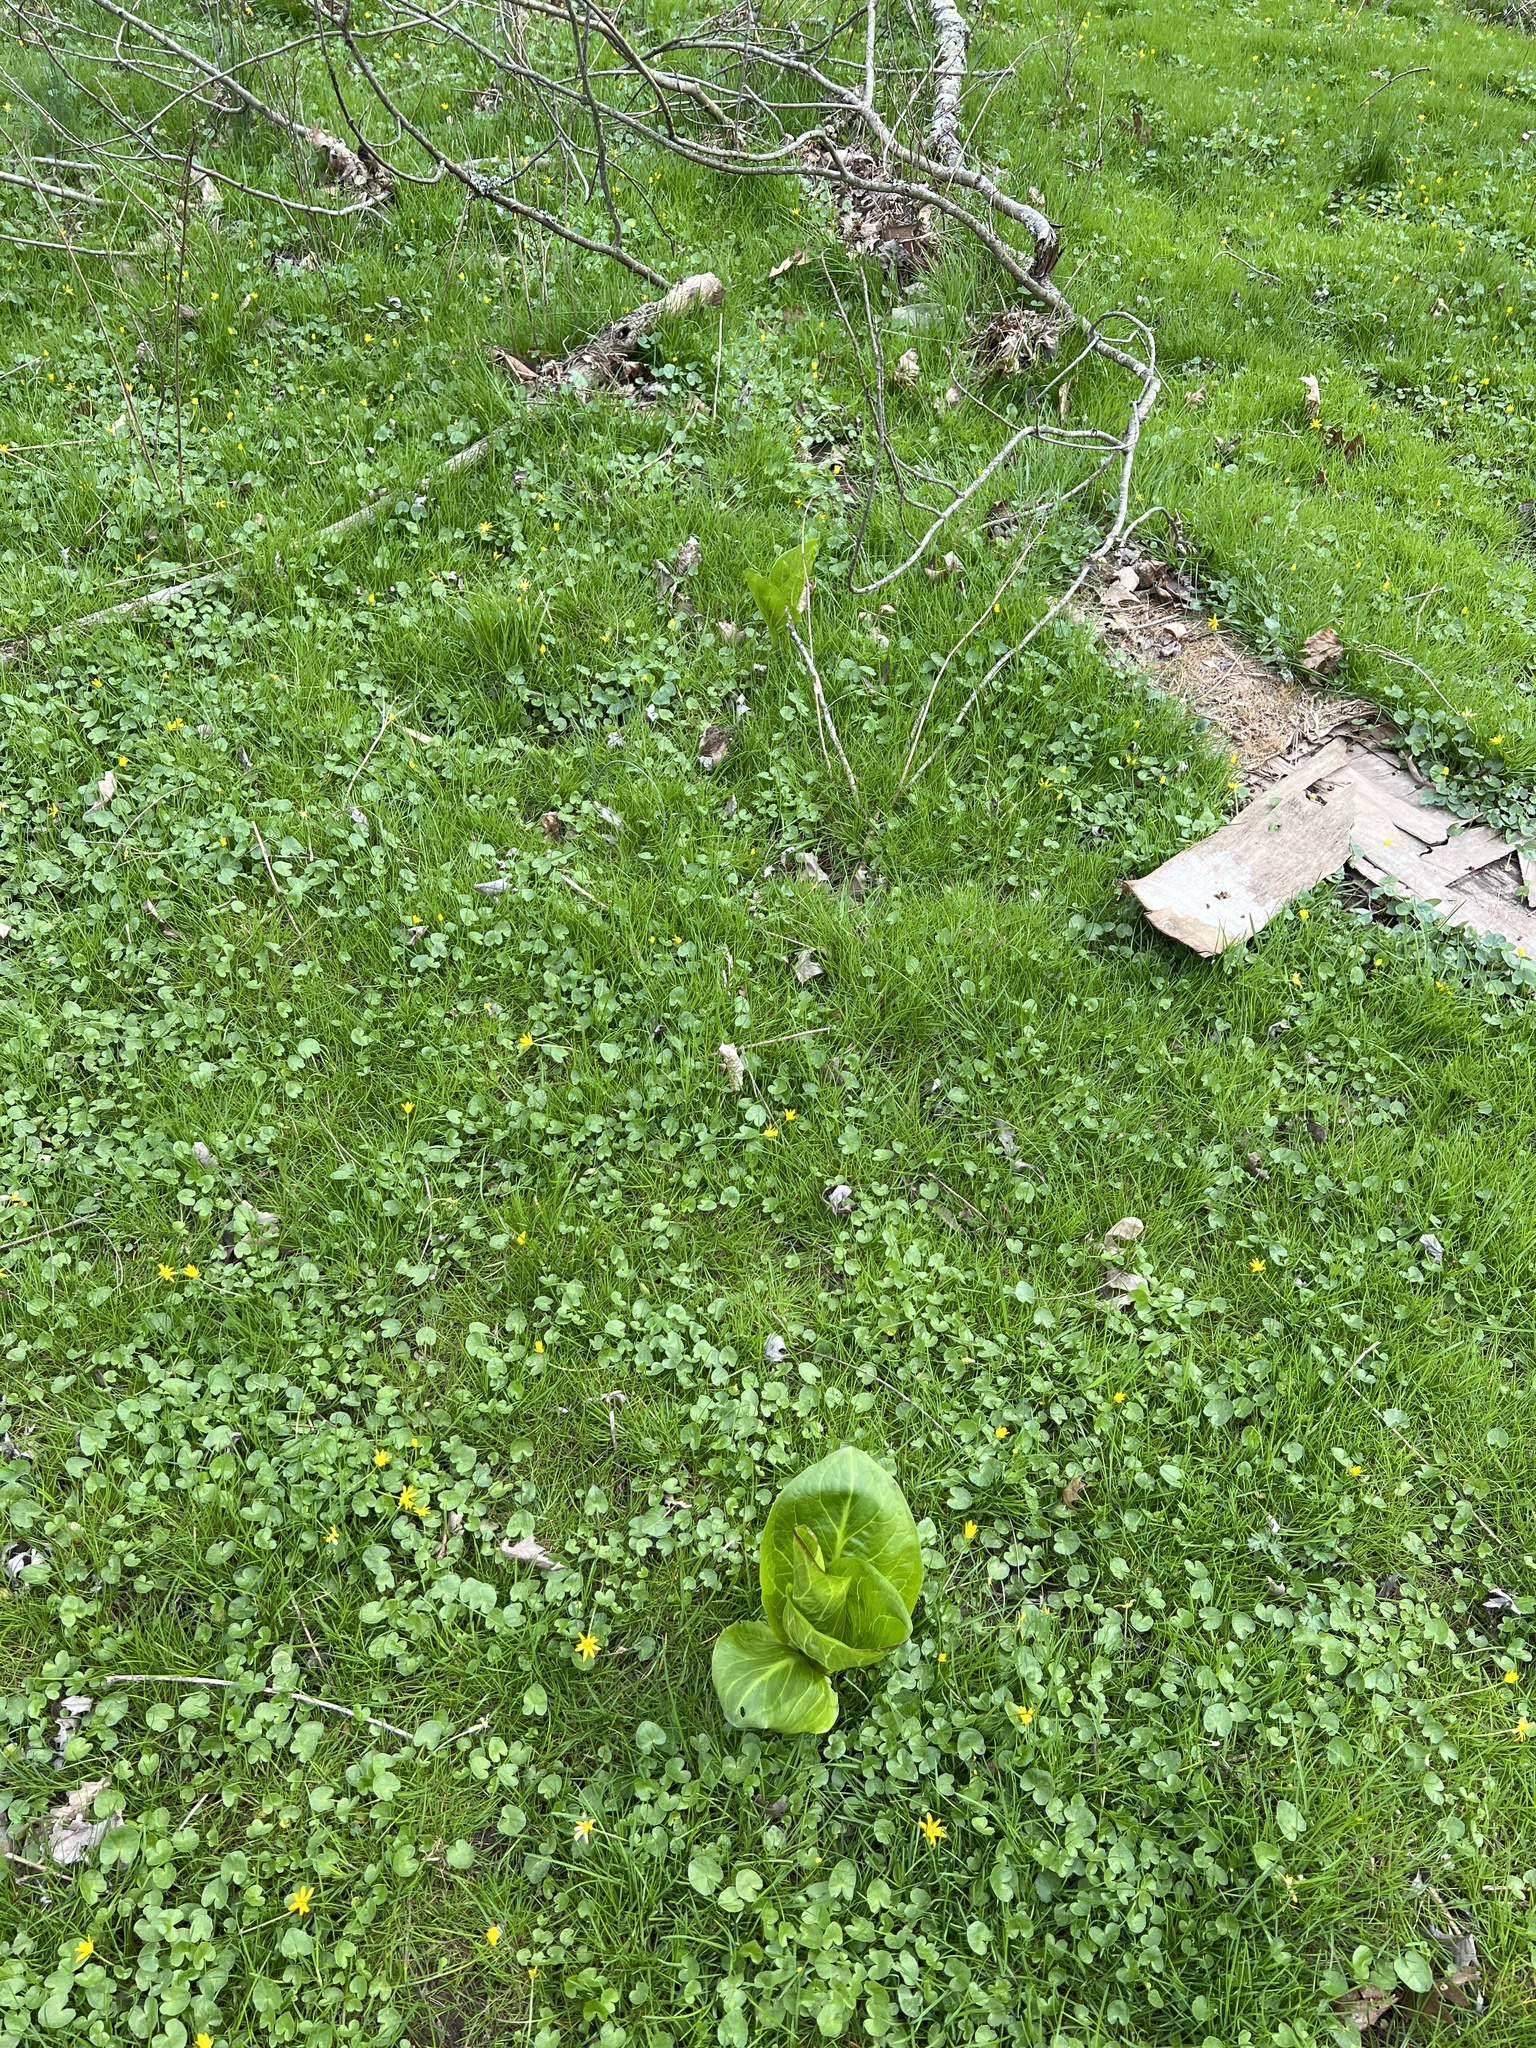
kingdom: Plantae
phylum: Tracheophyta
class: Liliopsida
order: Alismatales
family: Araceae
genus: Symplocarpus
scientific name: Symplocarpus foetidus
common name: Eastern skunk cabbage
